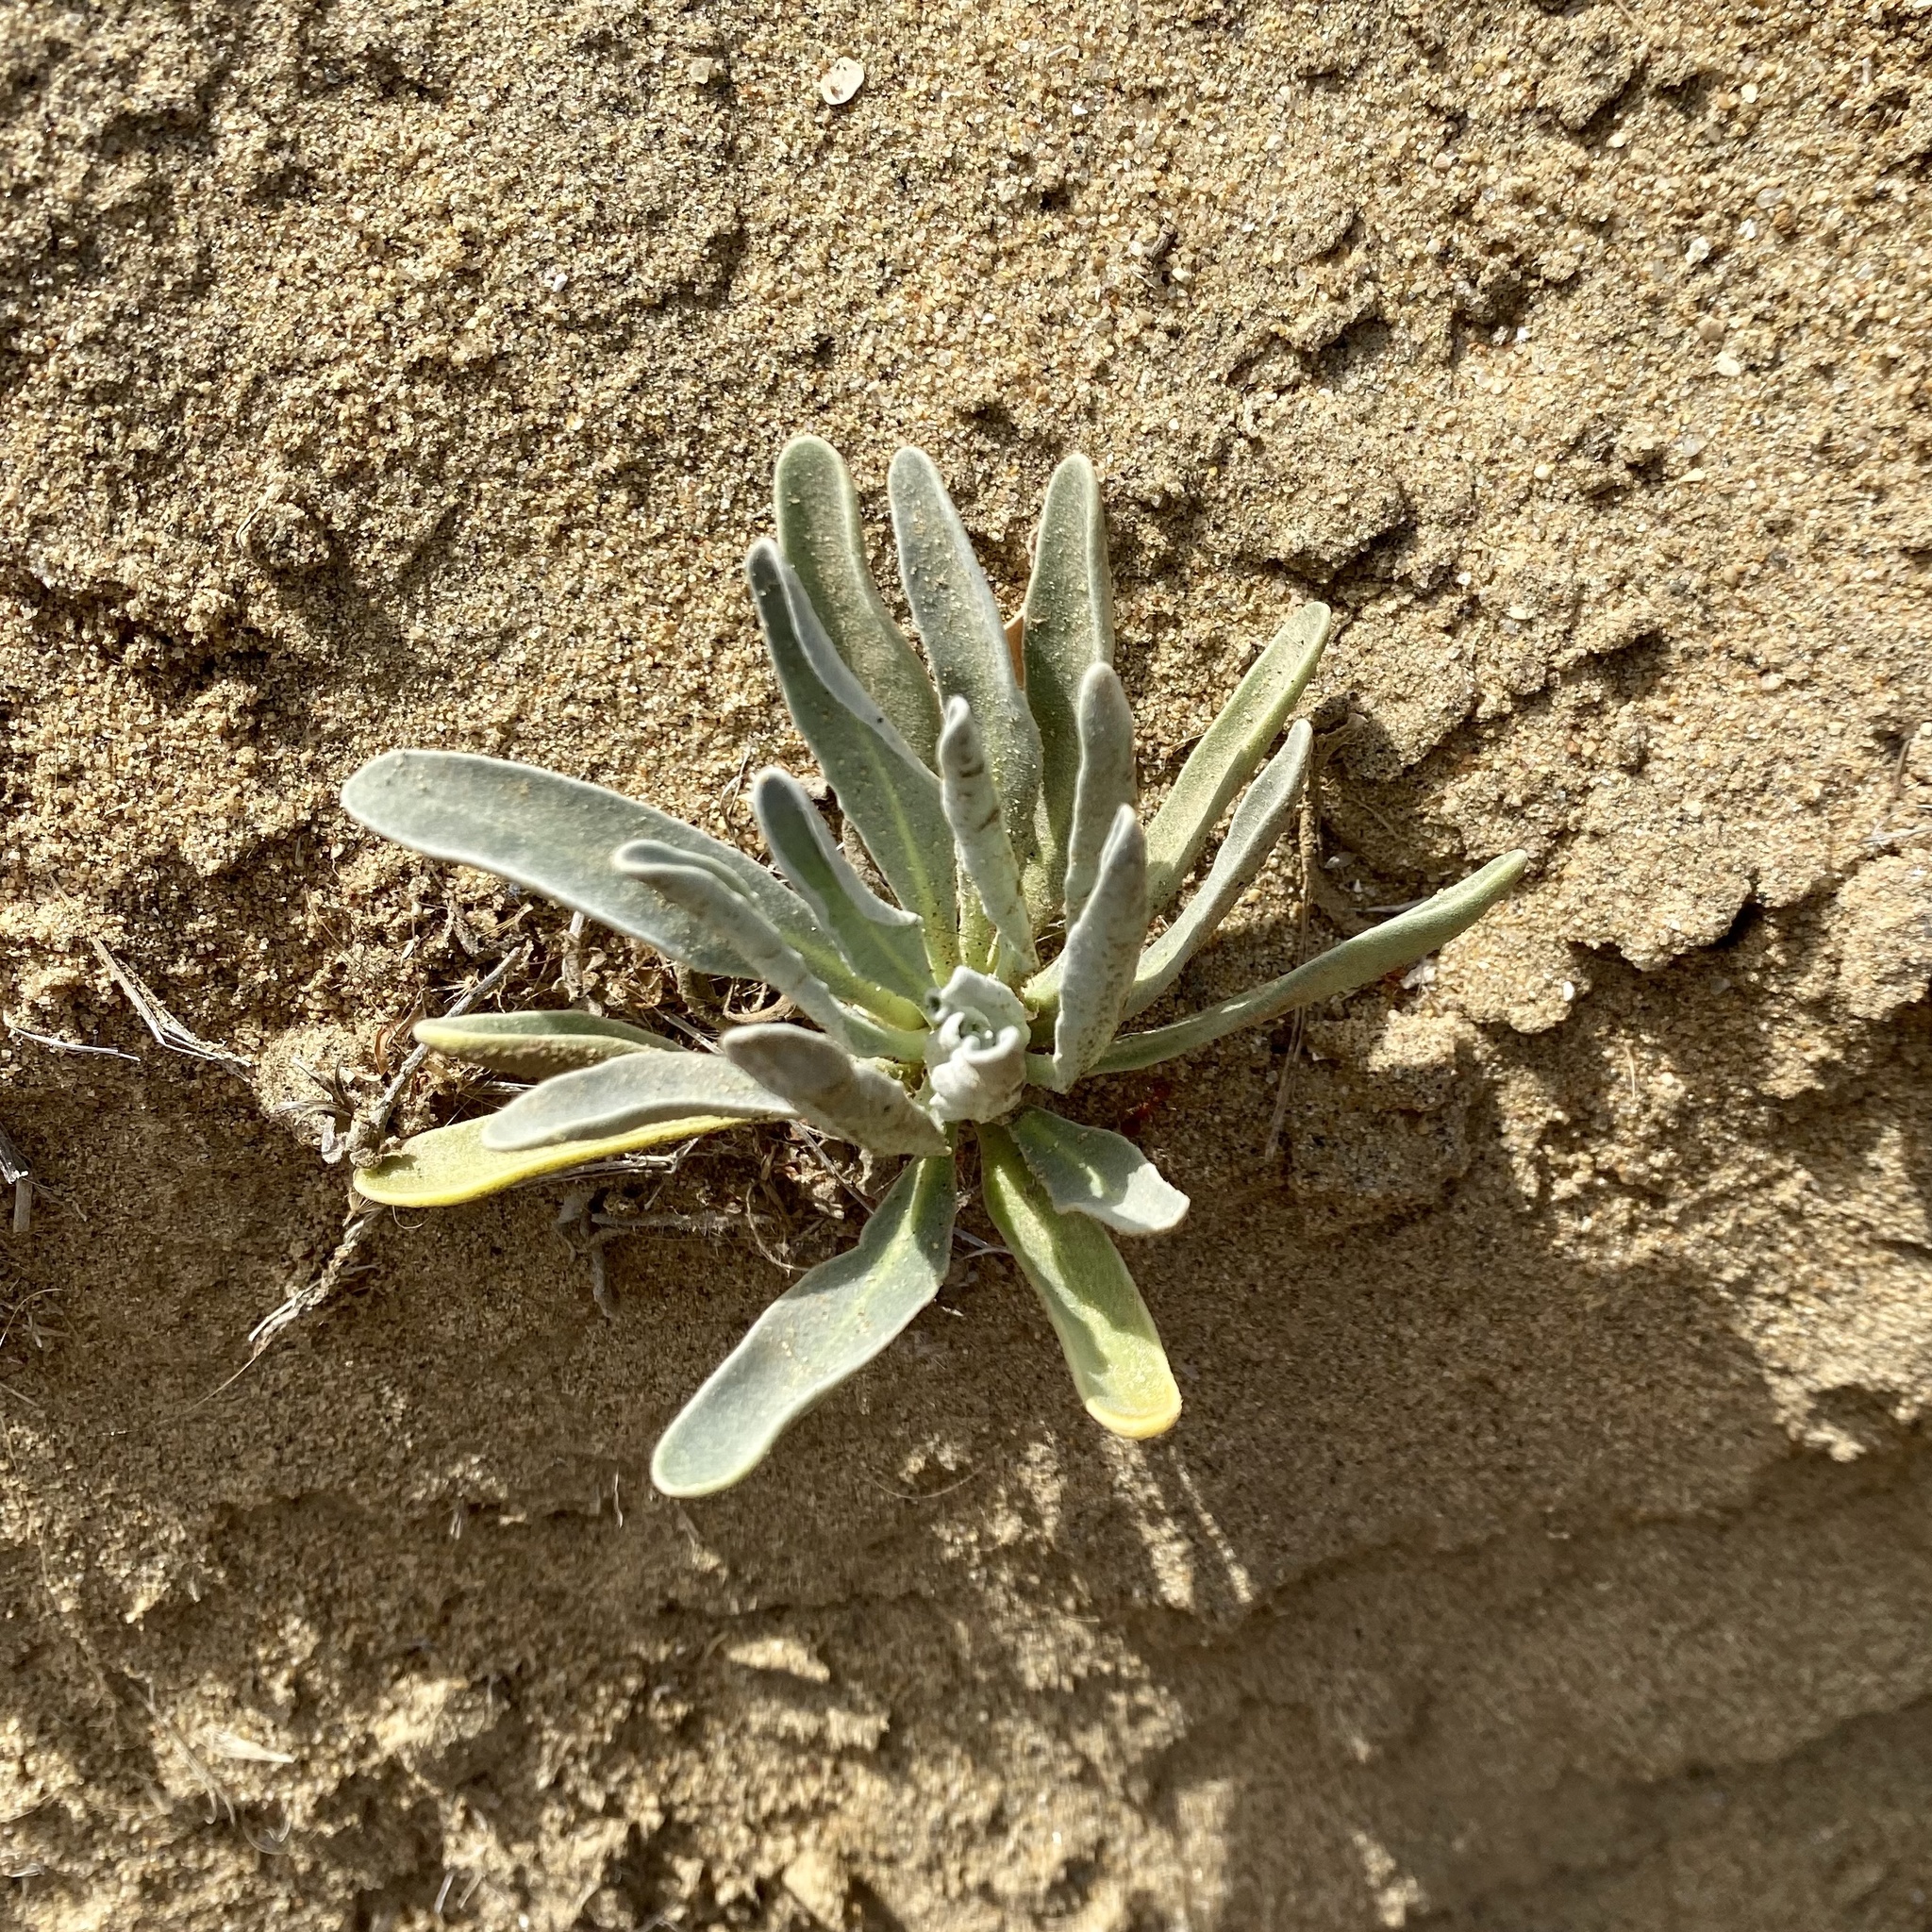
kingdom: Plantae
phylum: Tracheophyta
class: Magnoliopsida
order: Brassicales
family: Brassicaceae
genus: Matthiola
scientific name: Matthiola incana
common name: Hoary stock
